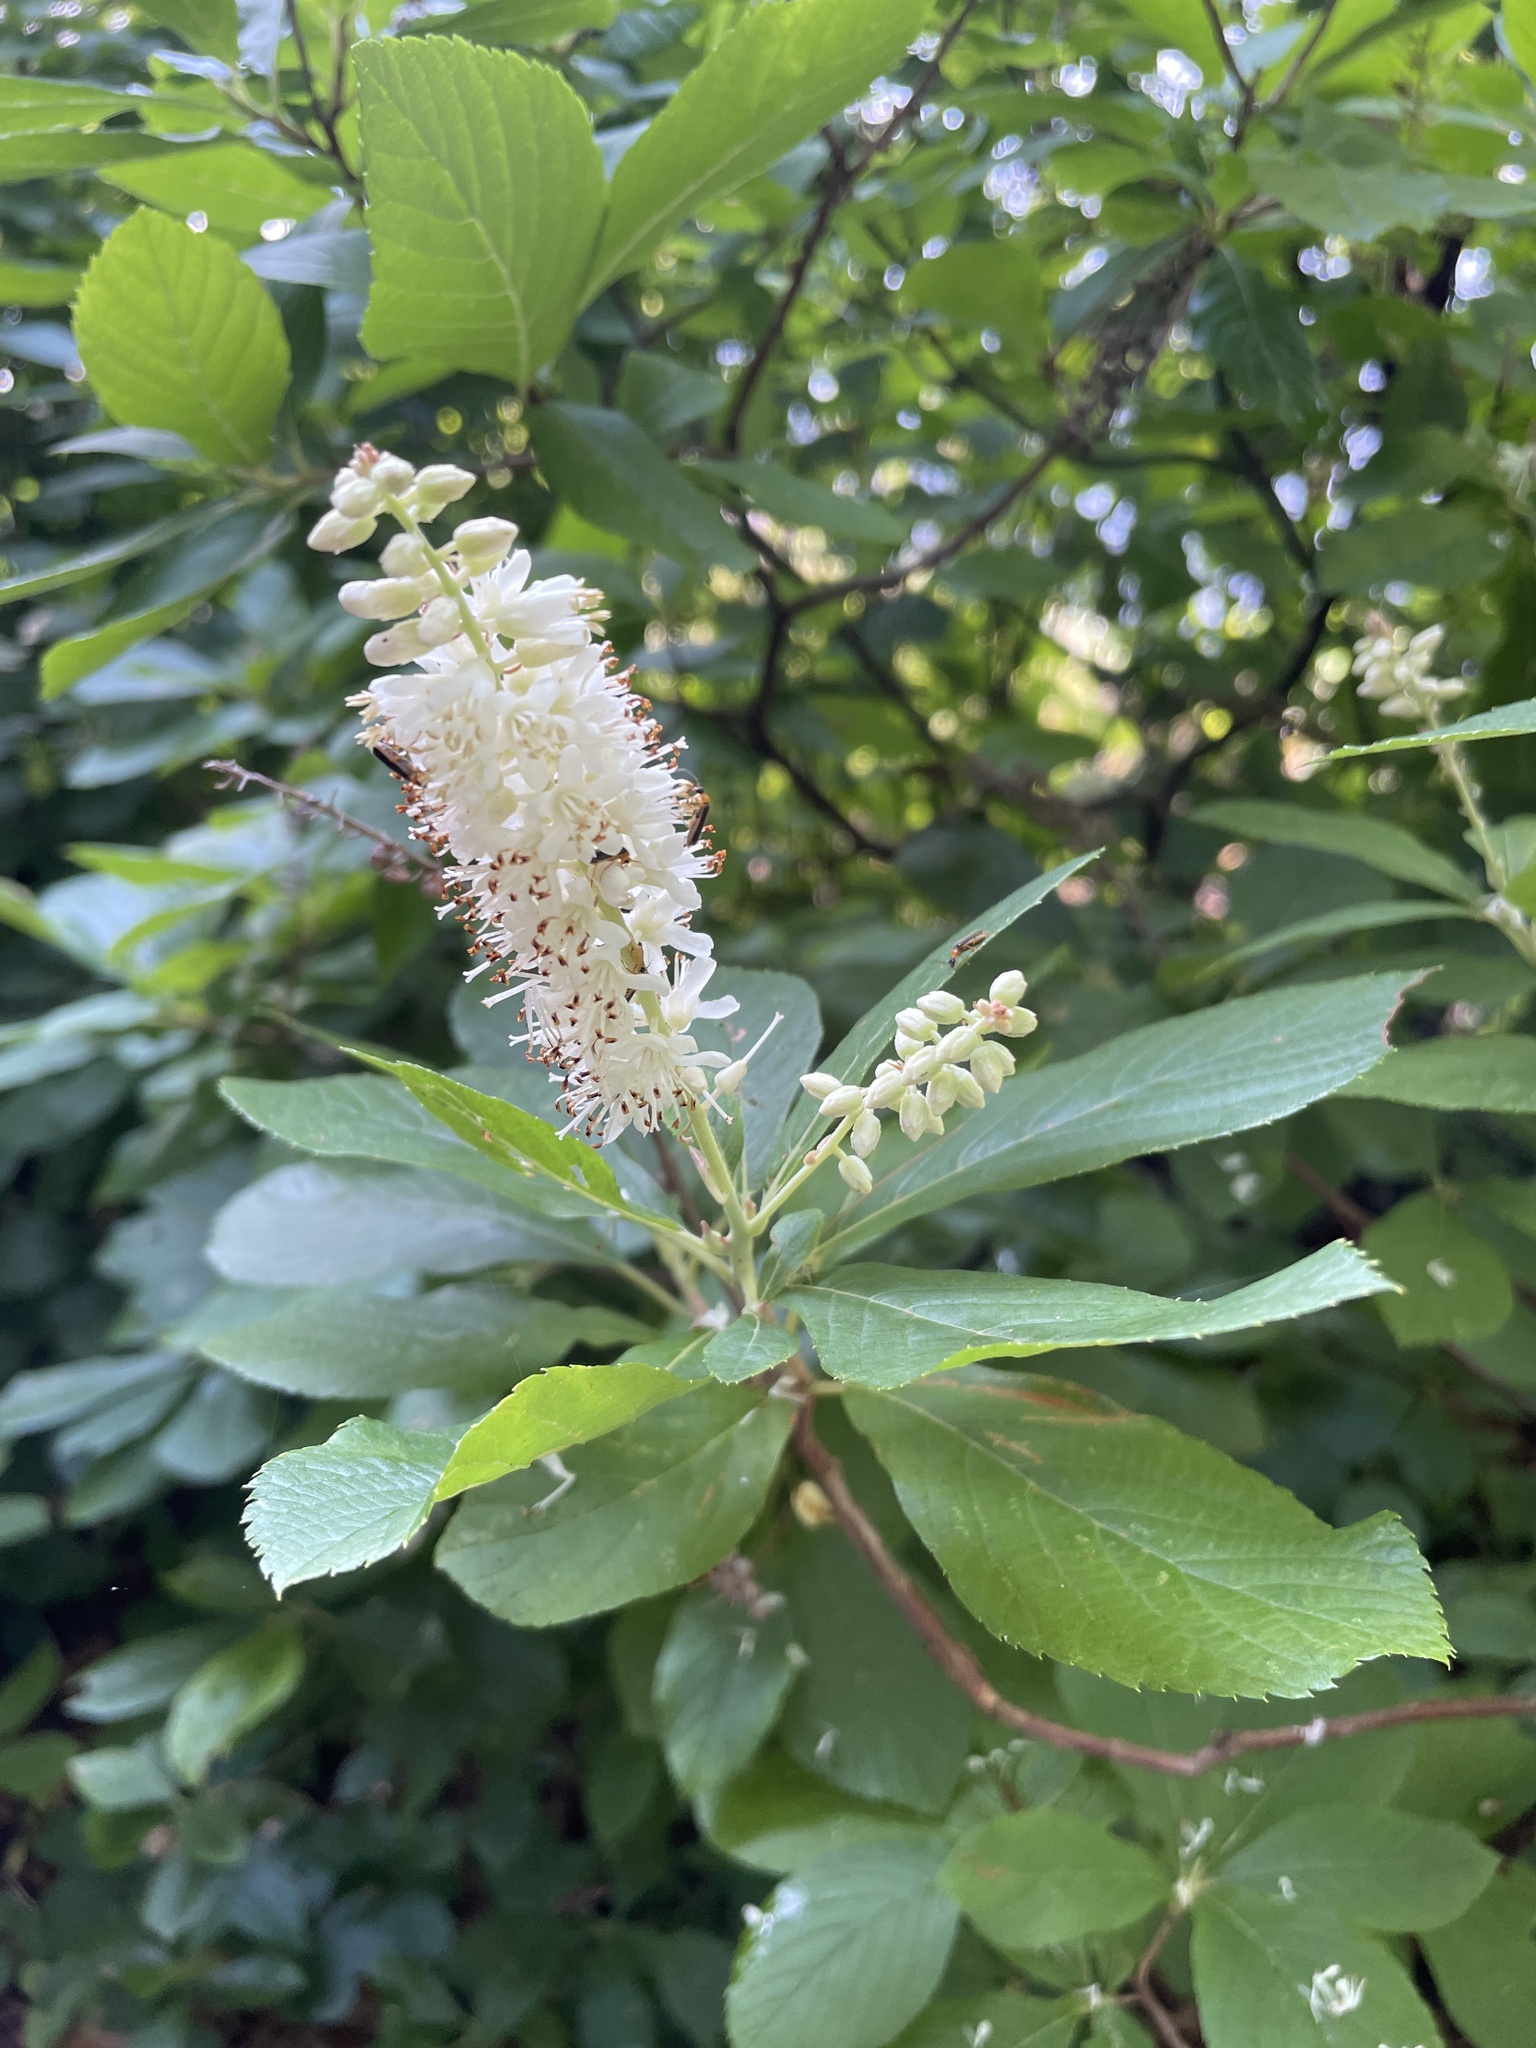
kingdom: Plantae
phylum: Tracheophyta
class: Magnoliopsida
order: Ericales
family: Clethraceae
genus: Clethra
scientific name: Clethra alnifolia
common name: Sweet pepperbush
